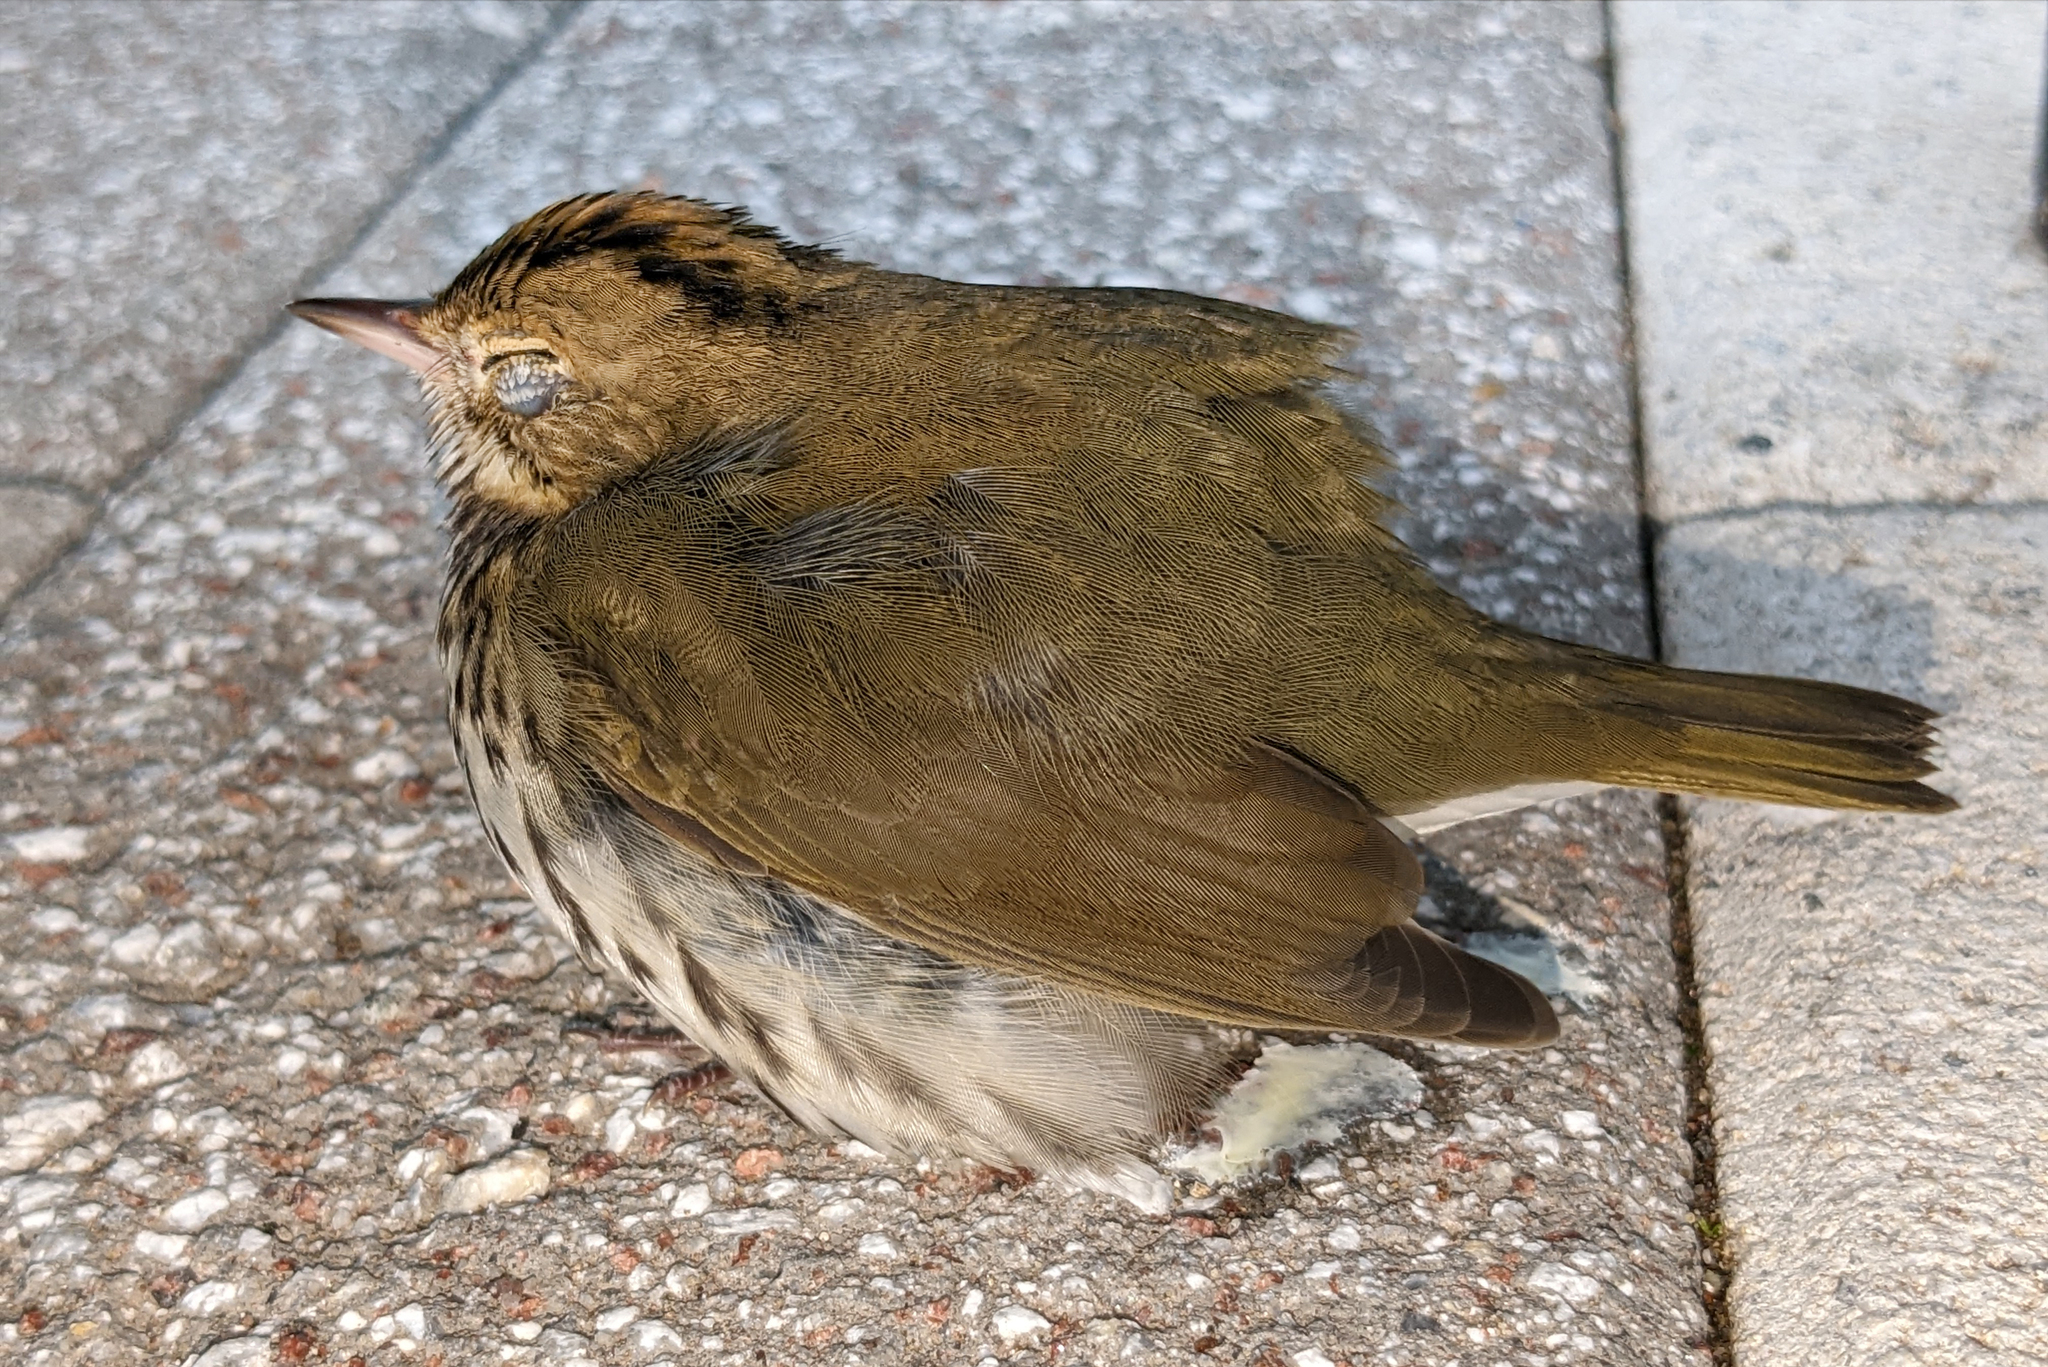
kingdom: Animalia
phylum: Chordata
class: Aves
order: Passeriformes
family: Parulidae
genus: Seiurus
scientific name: Seiurus aurocapilla
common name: Ovenbird
